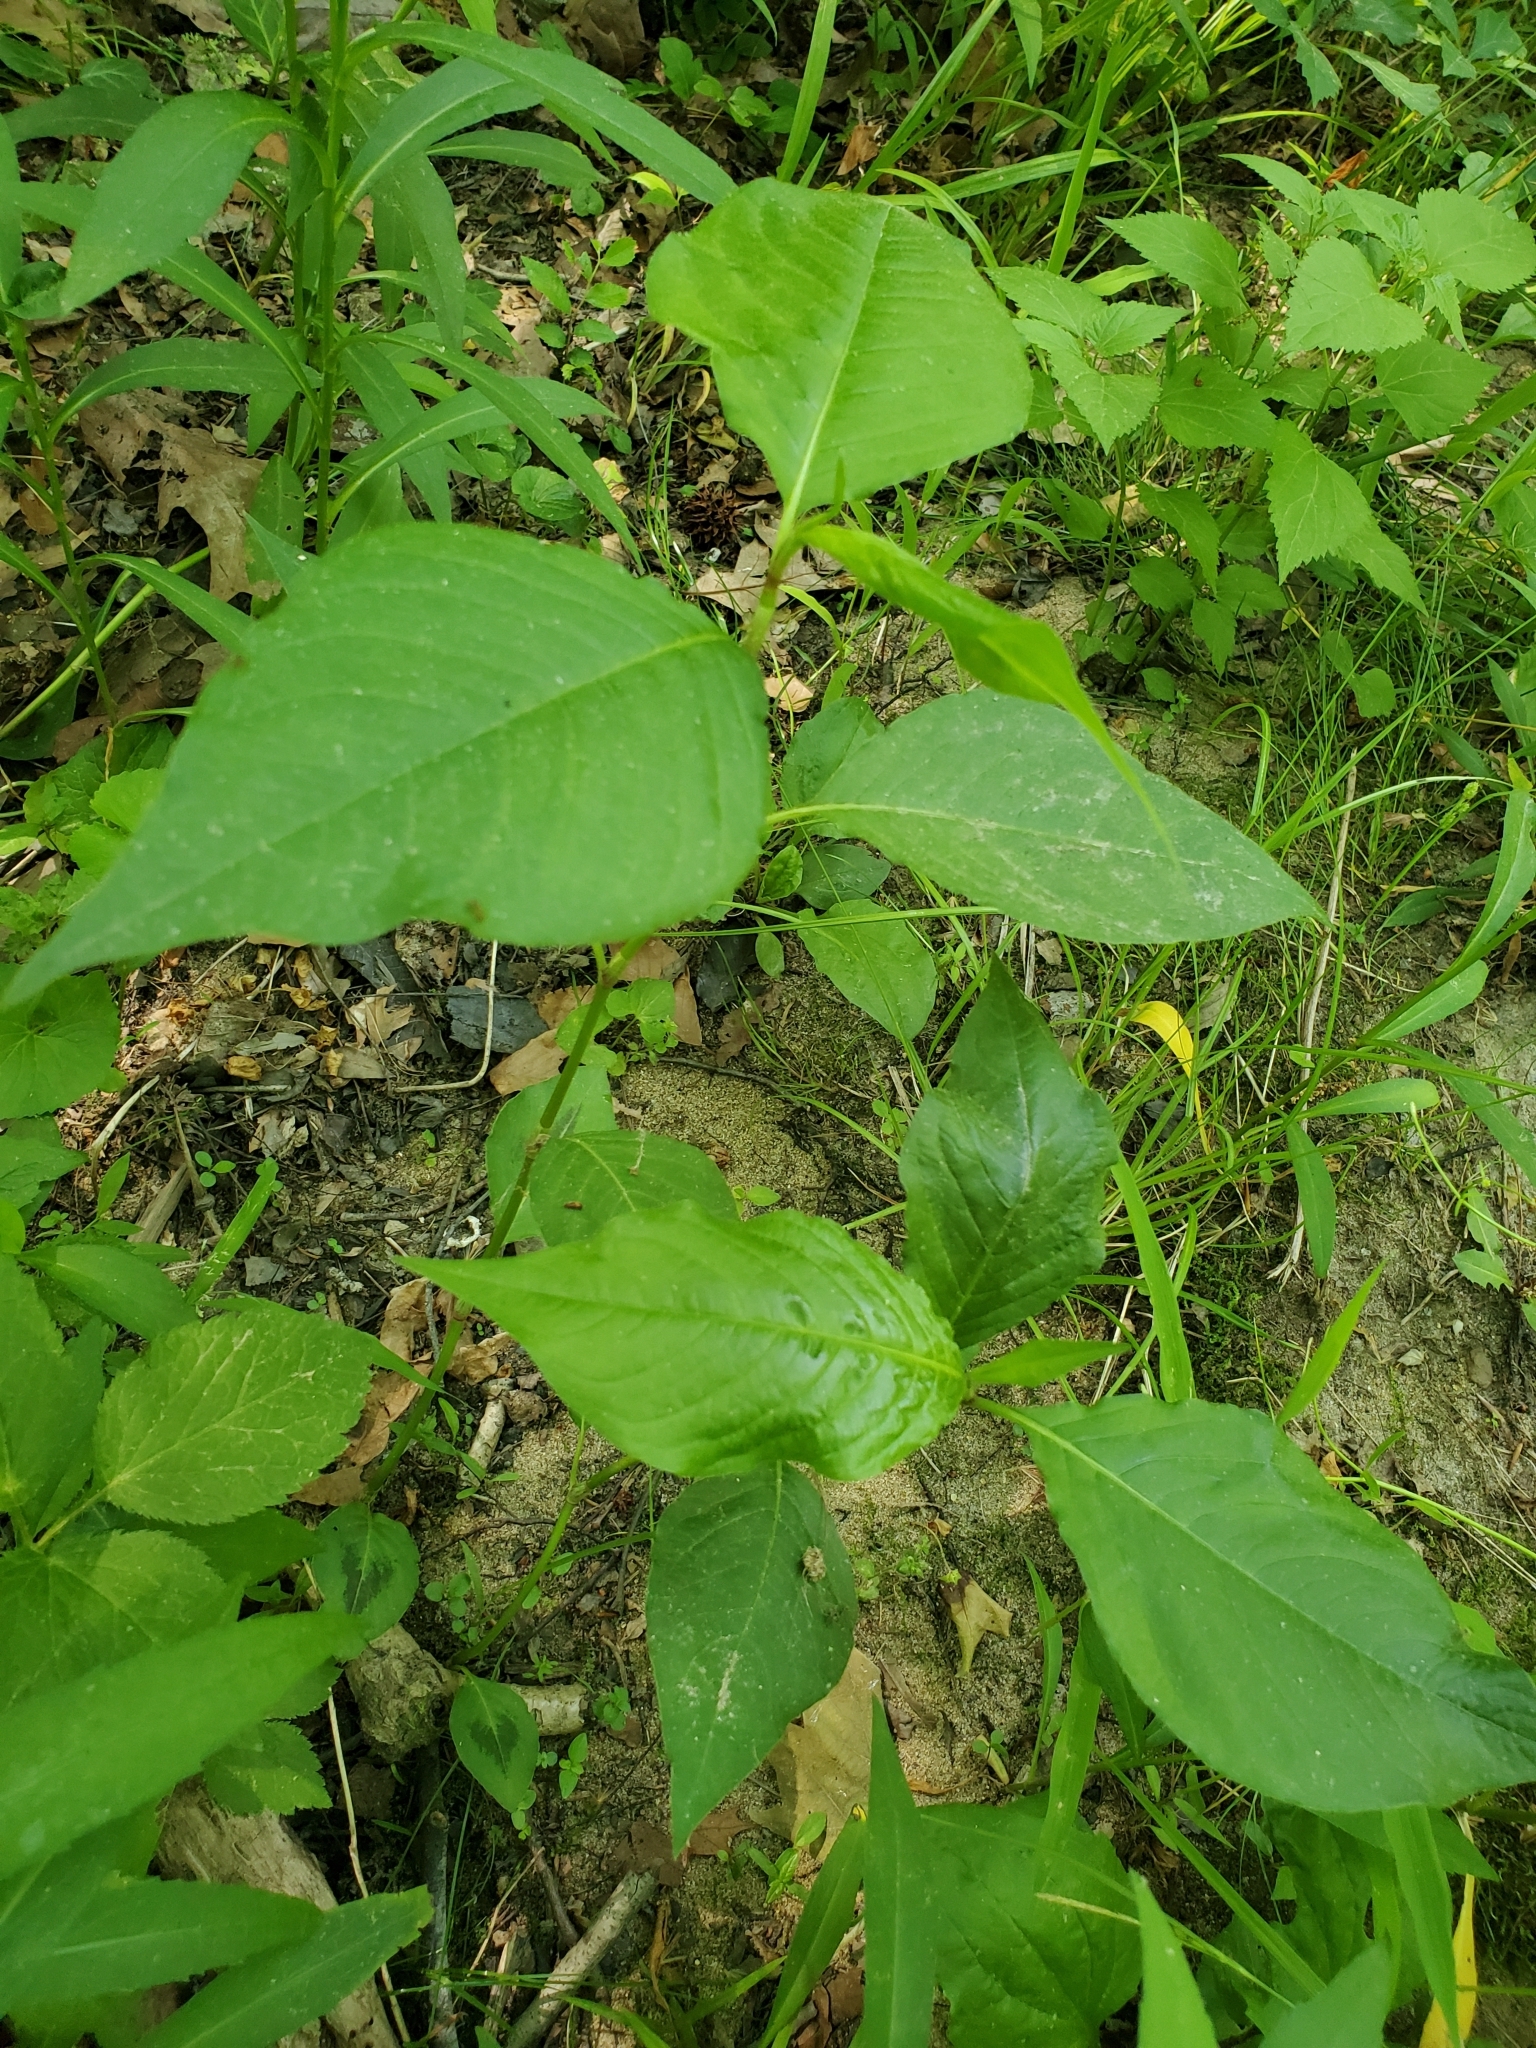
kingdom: Plantae
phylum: Tracheophyta
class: Magnoliopsida
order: Caryophyllales
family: Polygonaceae
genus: Persicaria
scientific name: Persicaria virginiana
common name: Jumpseed
